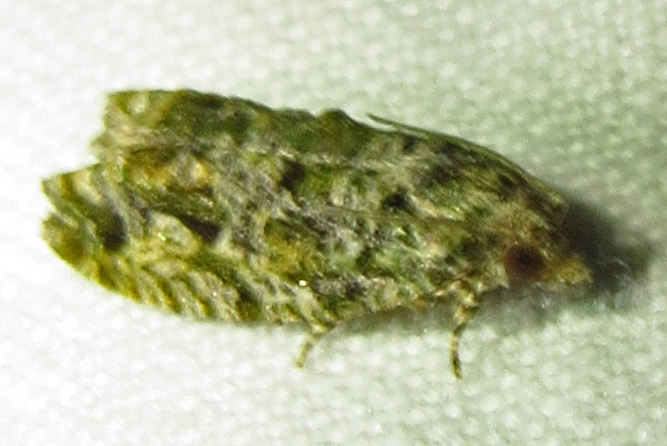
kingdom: Animalia
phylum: Arthropoda
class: Insecta
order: Lepidoptera
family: Tortricidae
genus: Proteoteras
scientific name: Proteoteras aesculana
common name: Maple twig borer moth
